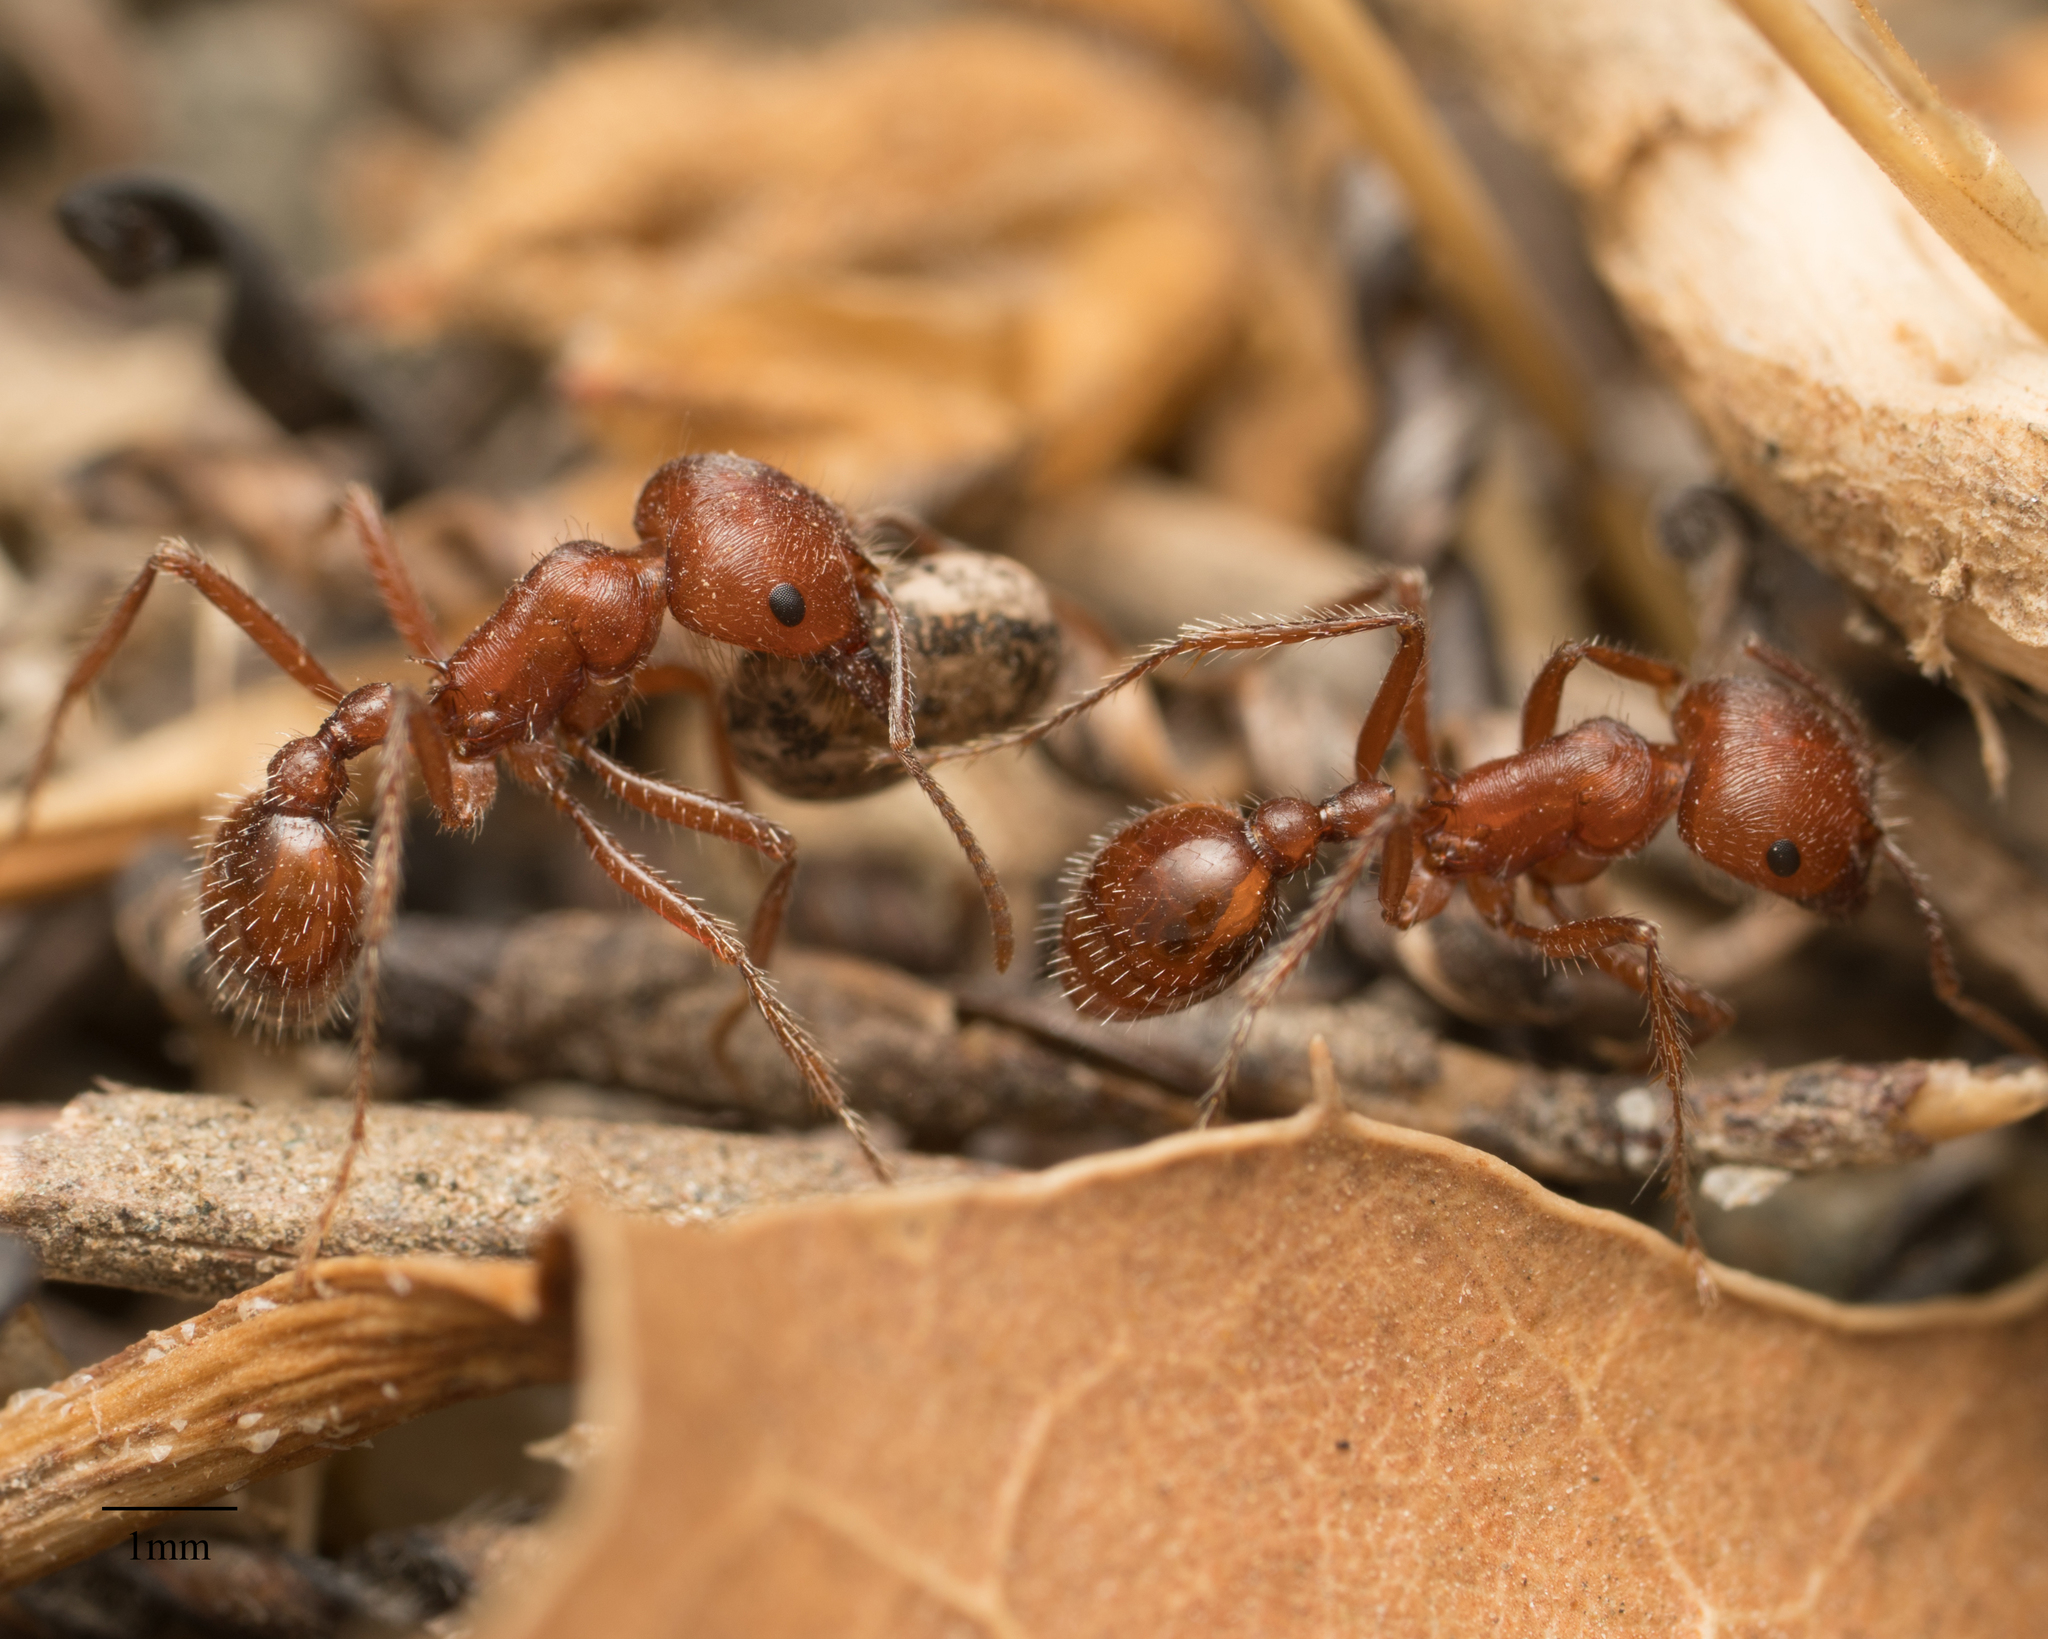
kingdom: Animalia
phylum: Arthropoda
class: Insecta
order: Hymenoptera
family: Formicidae
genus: Pogonomyrmex
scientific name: Pogonomyrmex subnitidus
